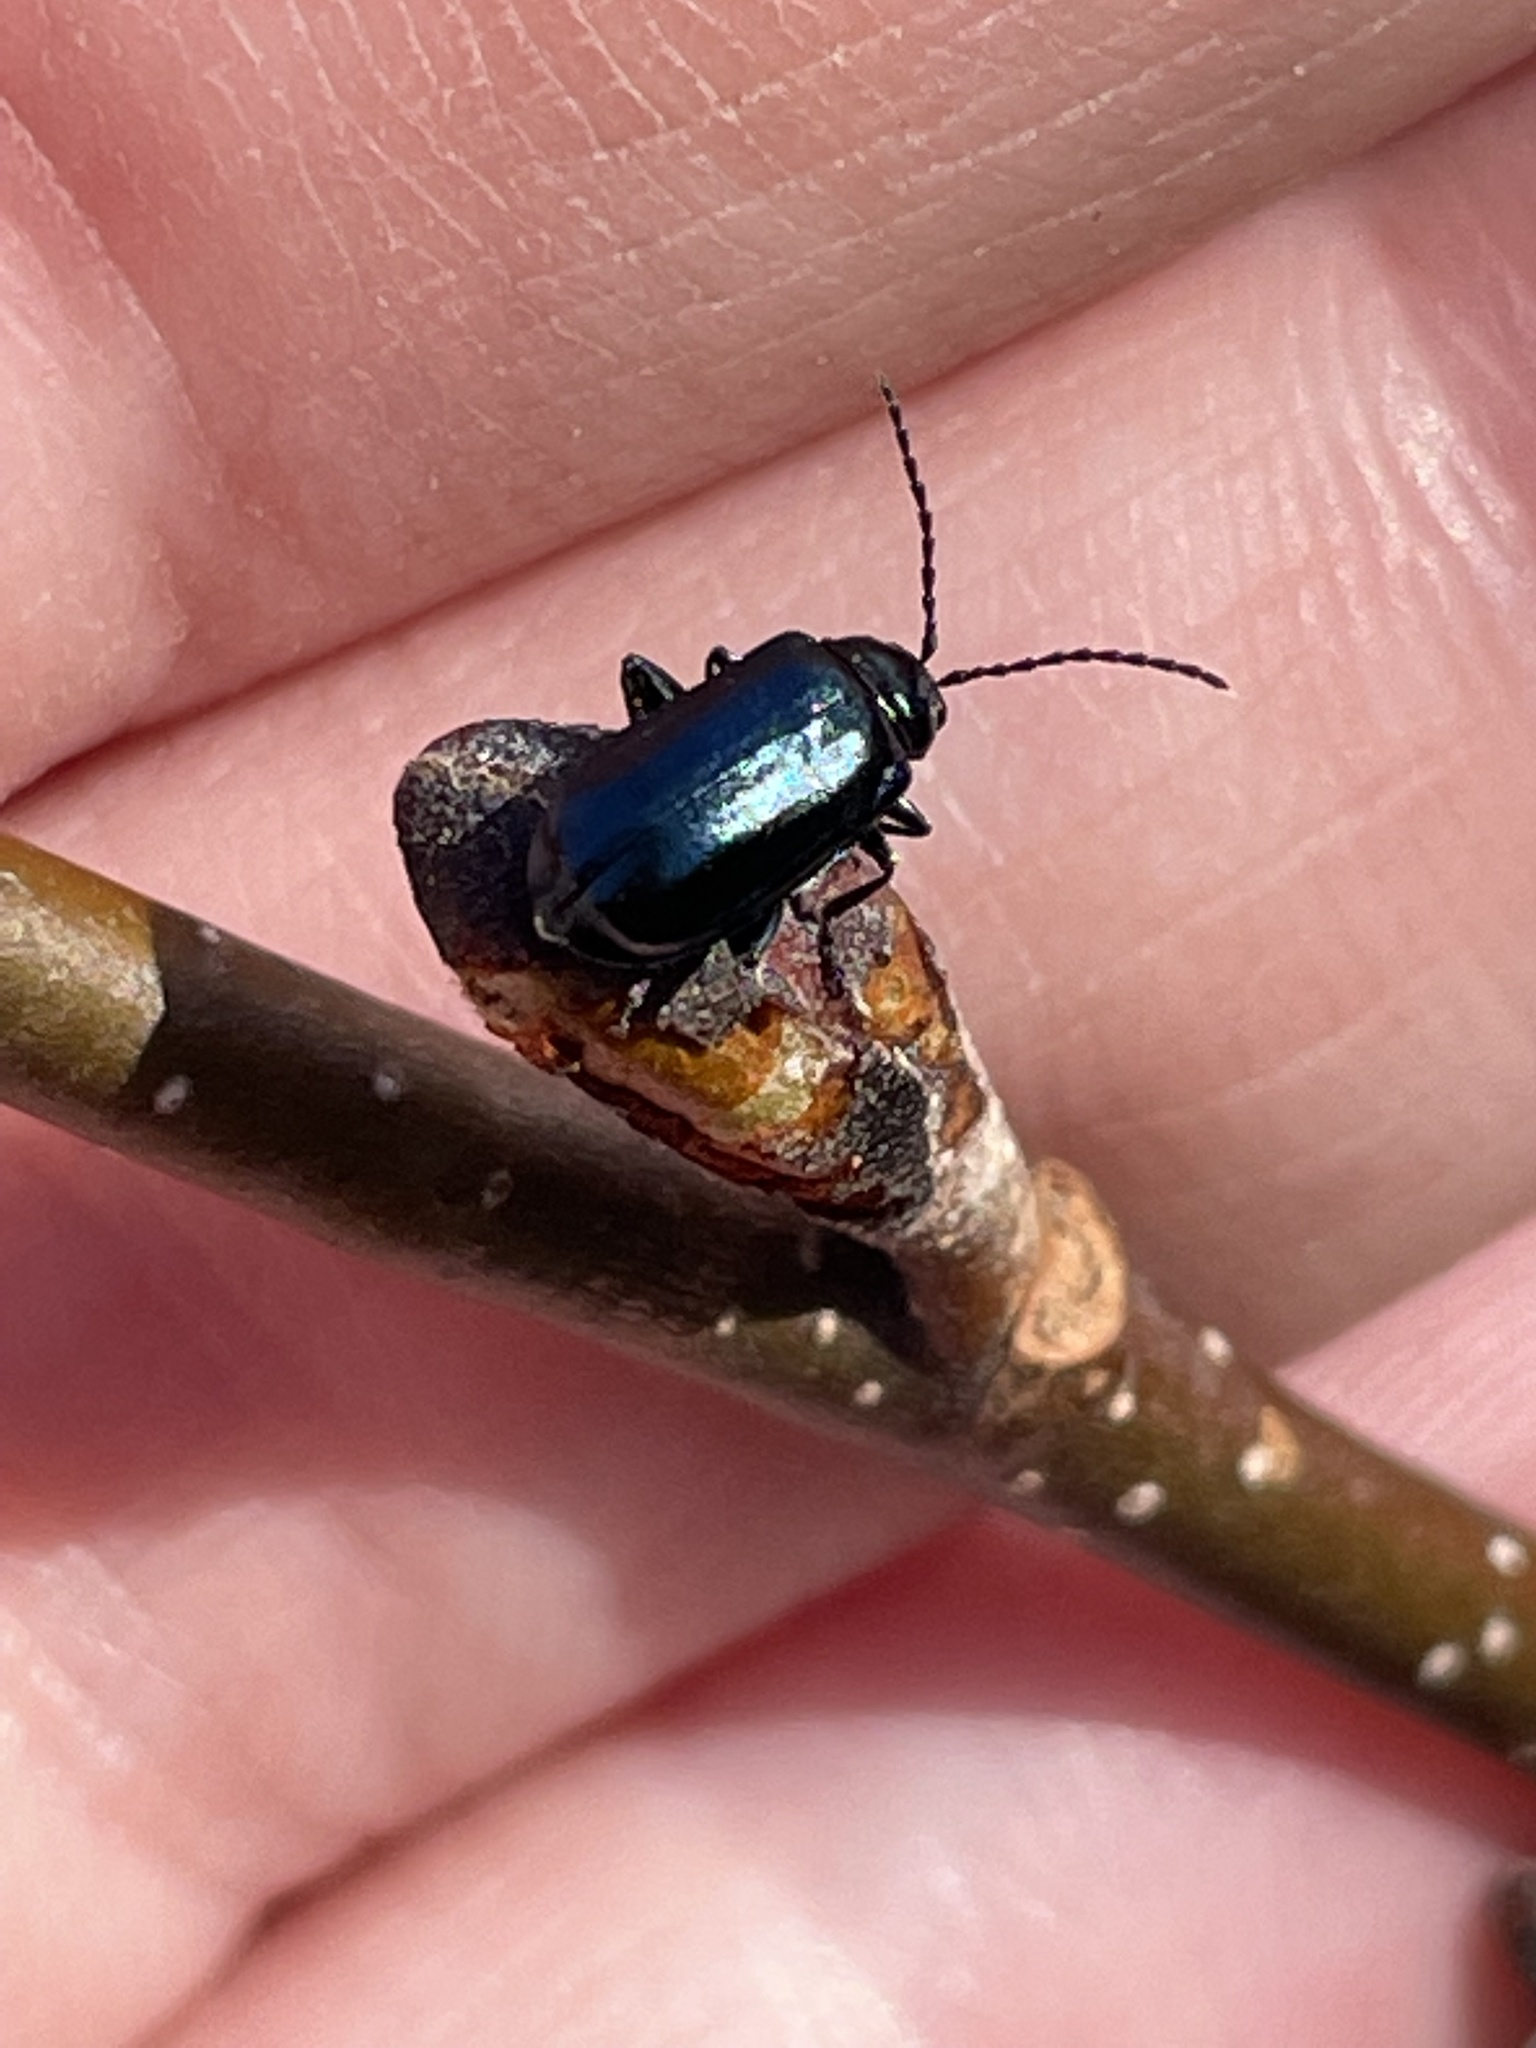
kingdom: Animalia
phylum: Arthropoda
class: Insecta
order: Coleoptera
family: Chrysomelidae
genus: Altica
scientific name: Altica ambiens
